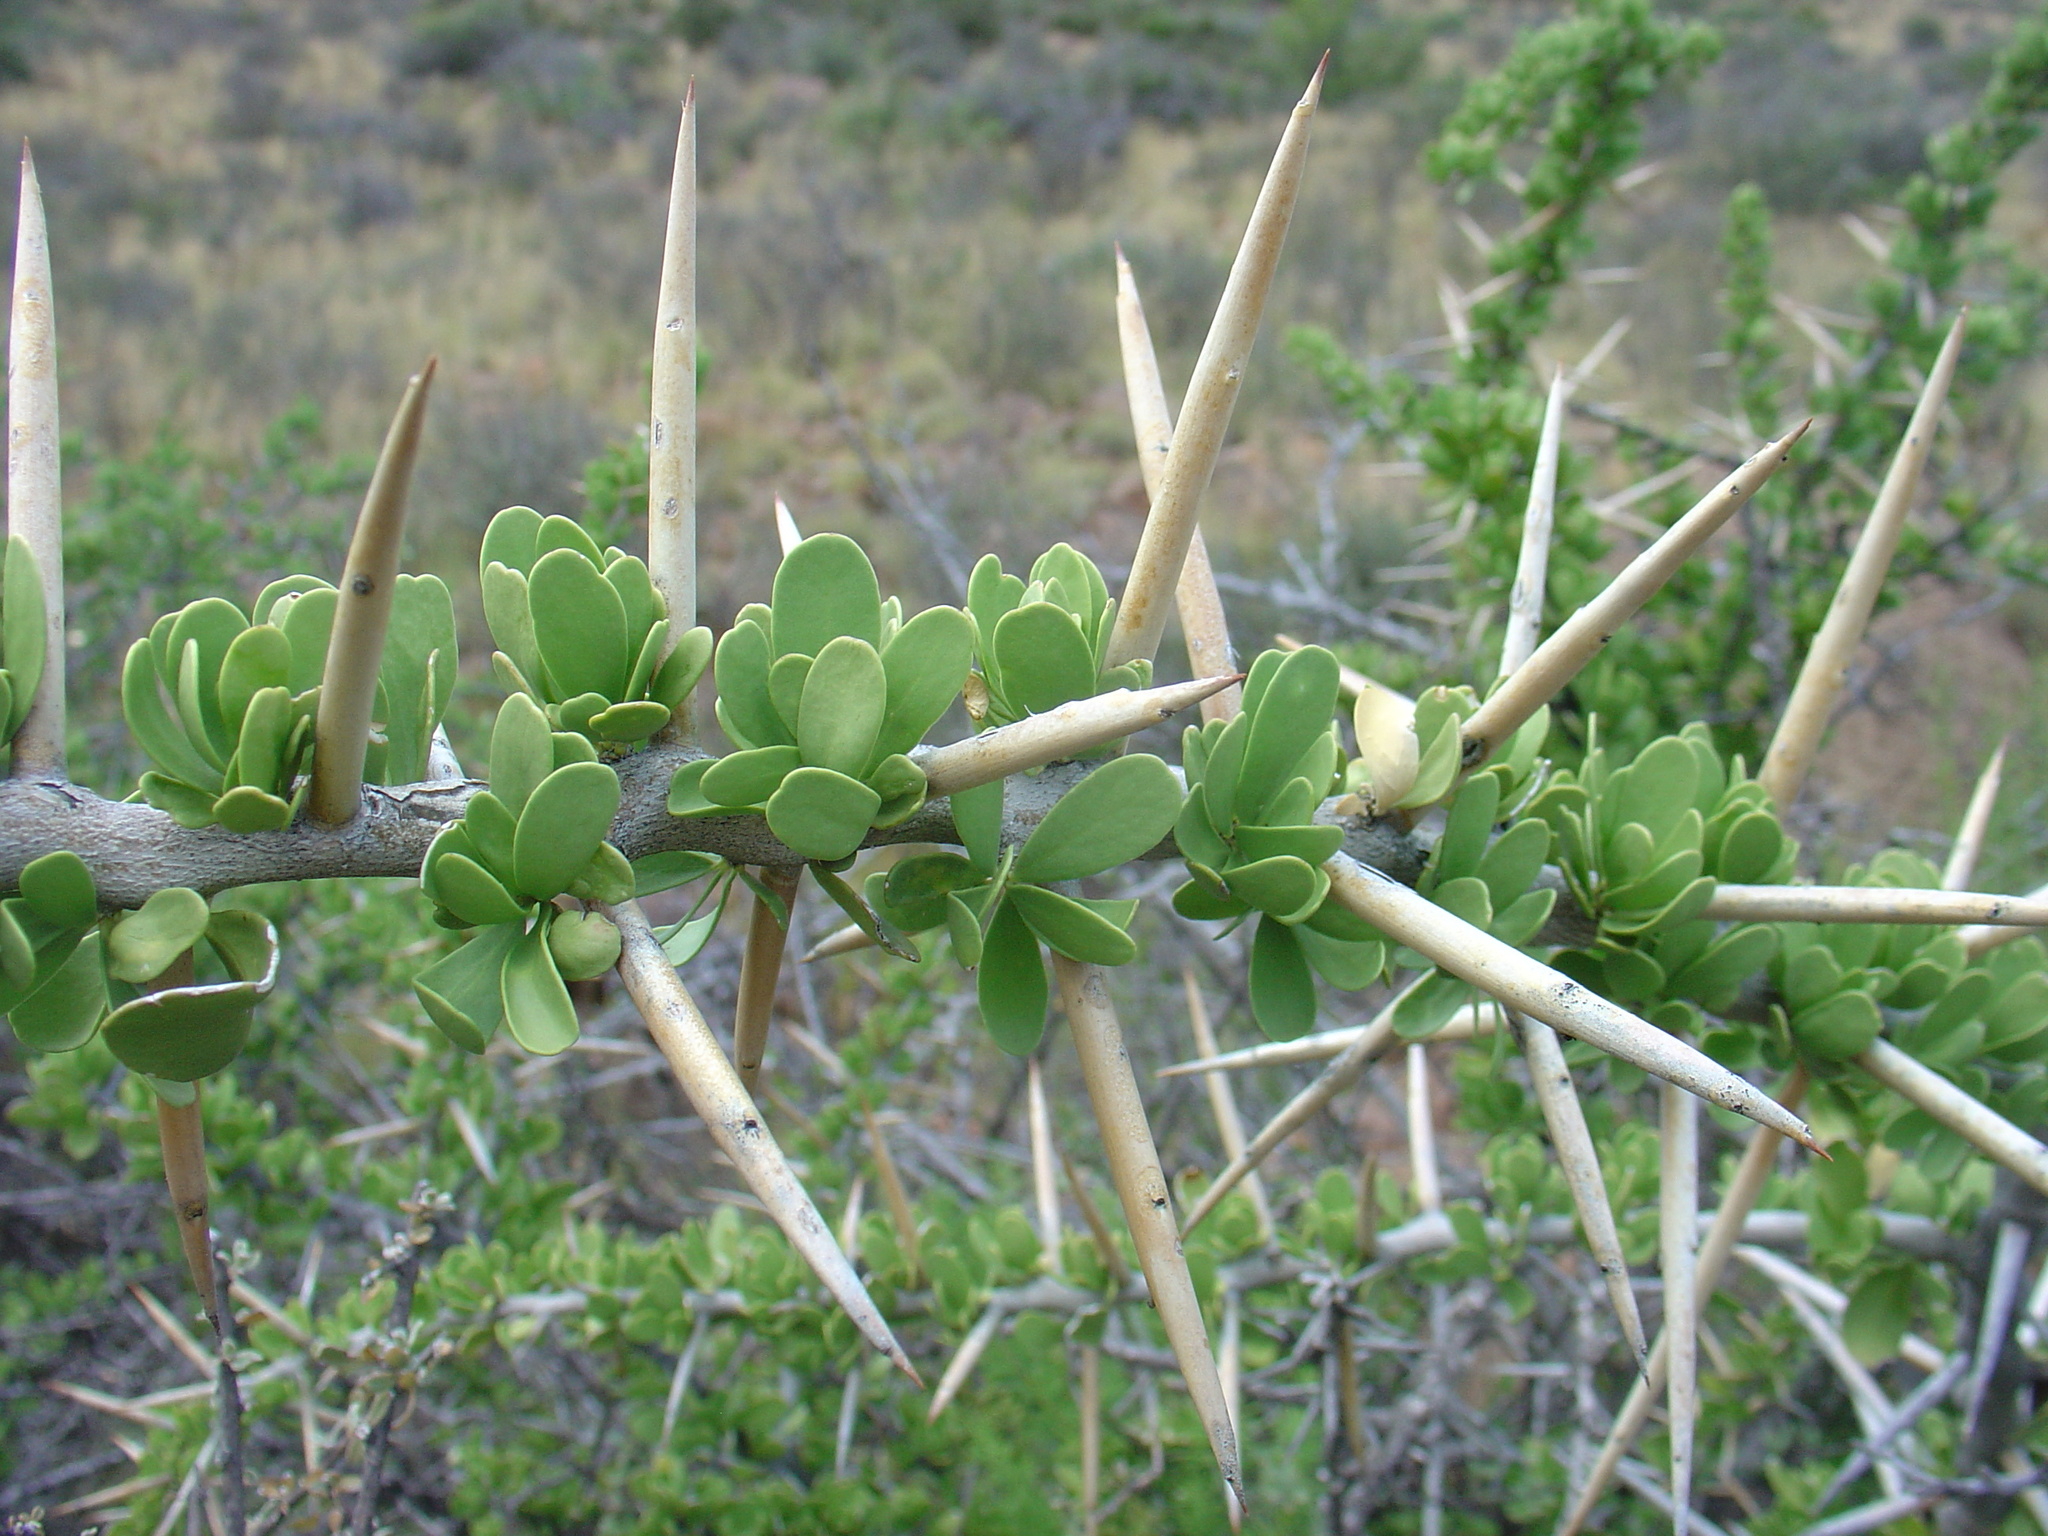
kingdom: Plantae
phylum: Tracheophyta
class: Magnoliopsida
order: Celastrales
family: Celastraceae
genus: Gymnosporia
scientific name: Gymnosporia buxifolia
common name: Common spike-thorn
